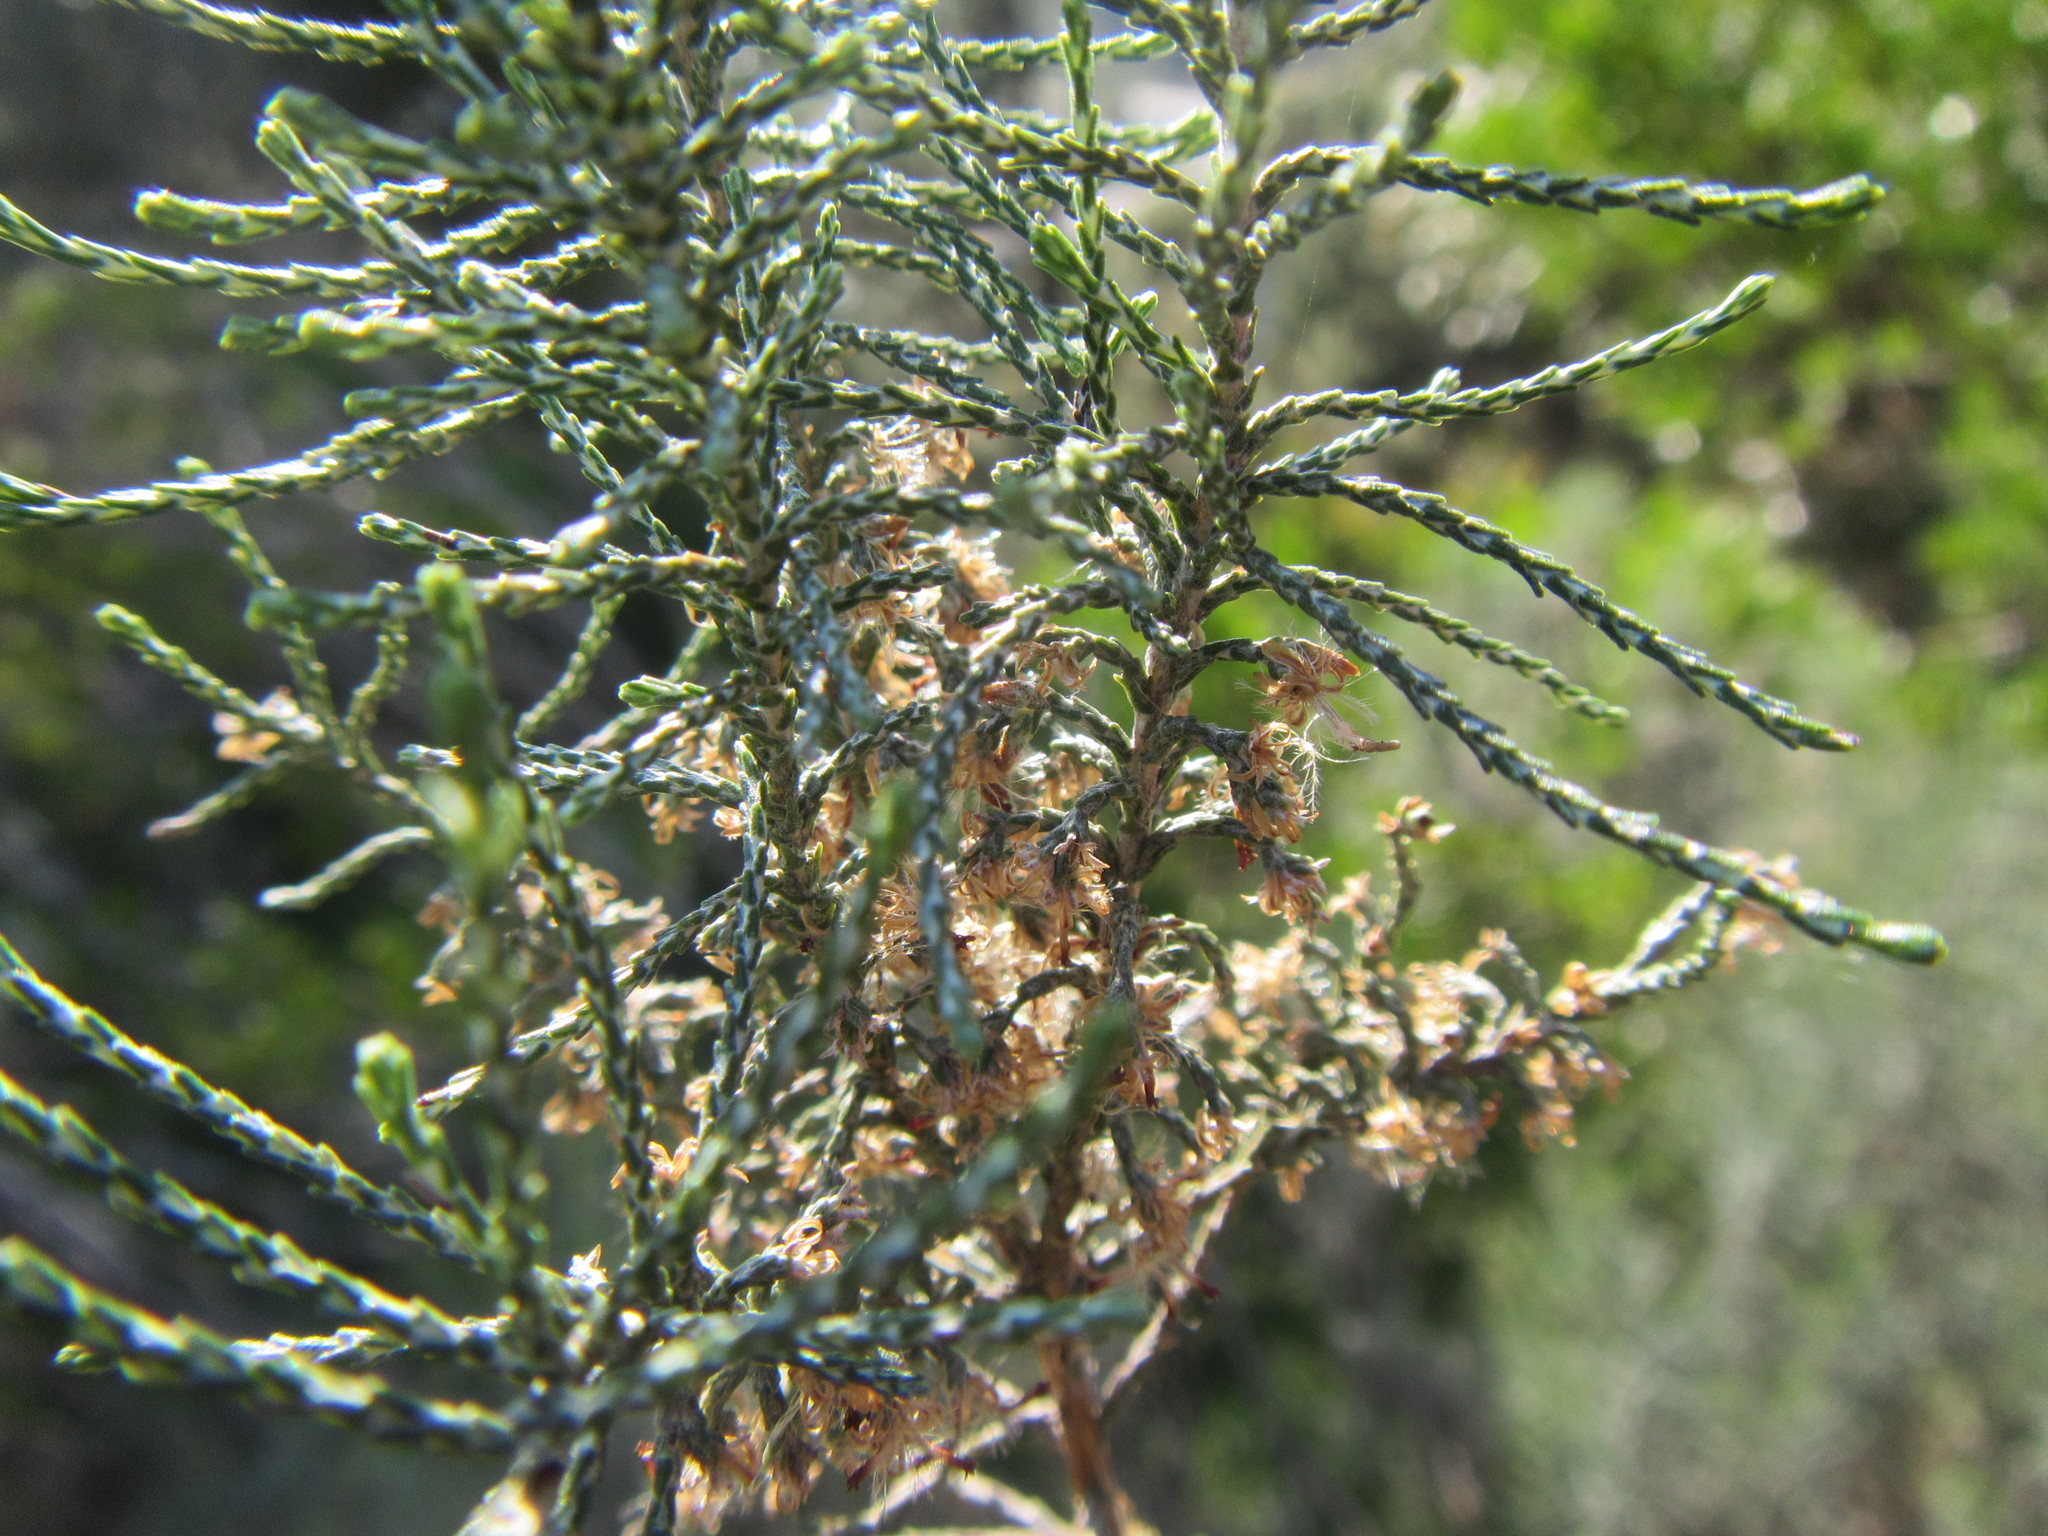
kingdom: Plantae
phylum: Tracheophyta
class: Magnoliopsida
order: Asterales
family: Asteraceae
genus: Dicerothamnus
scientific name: Dicerothamnus rhinocerotis
